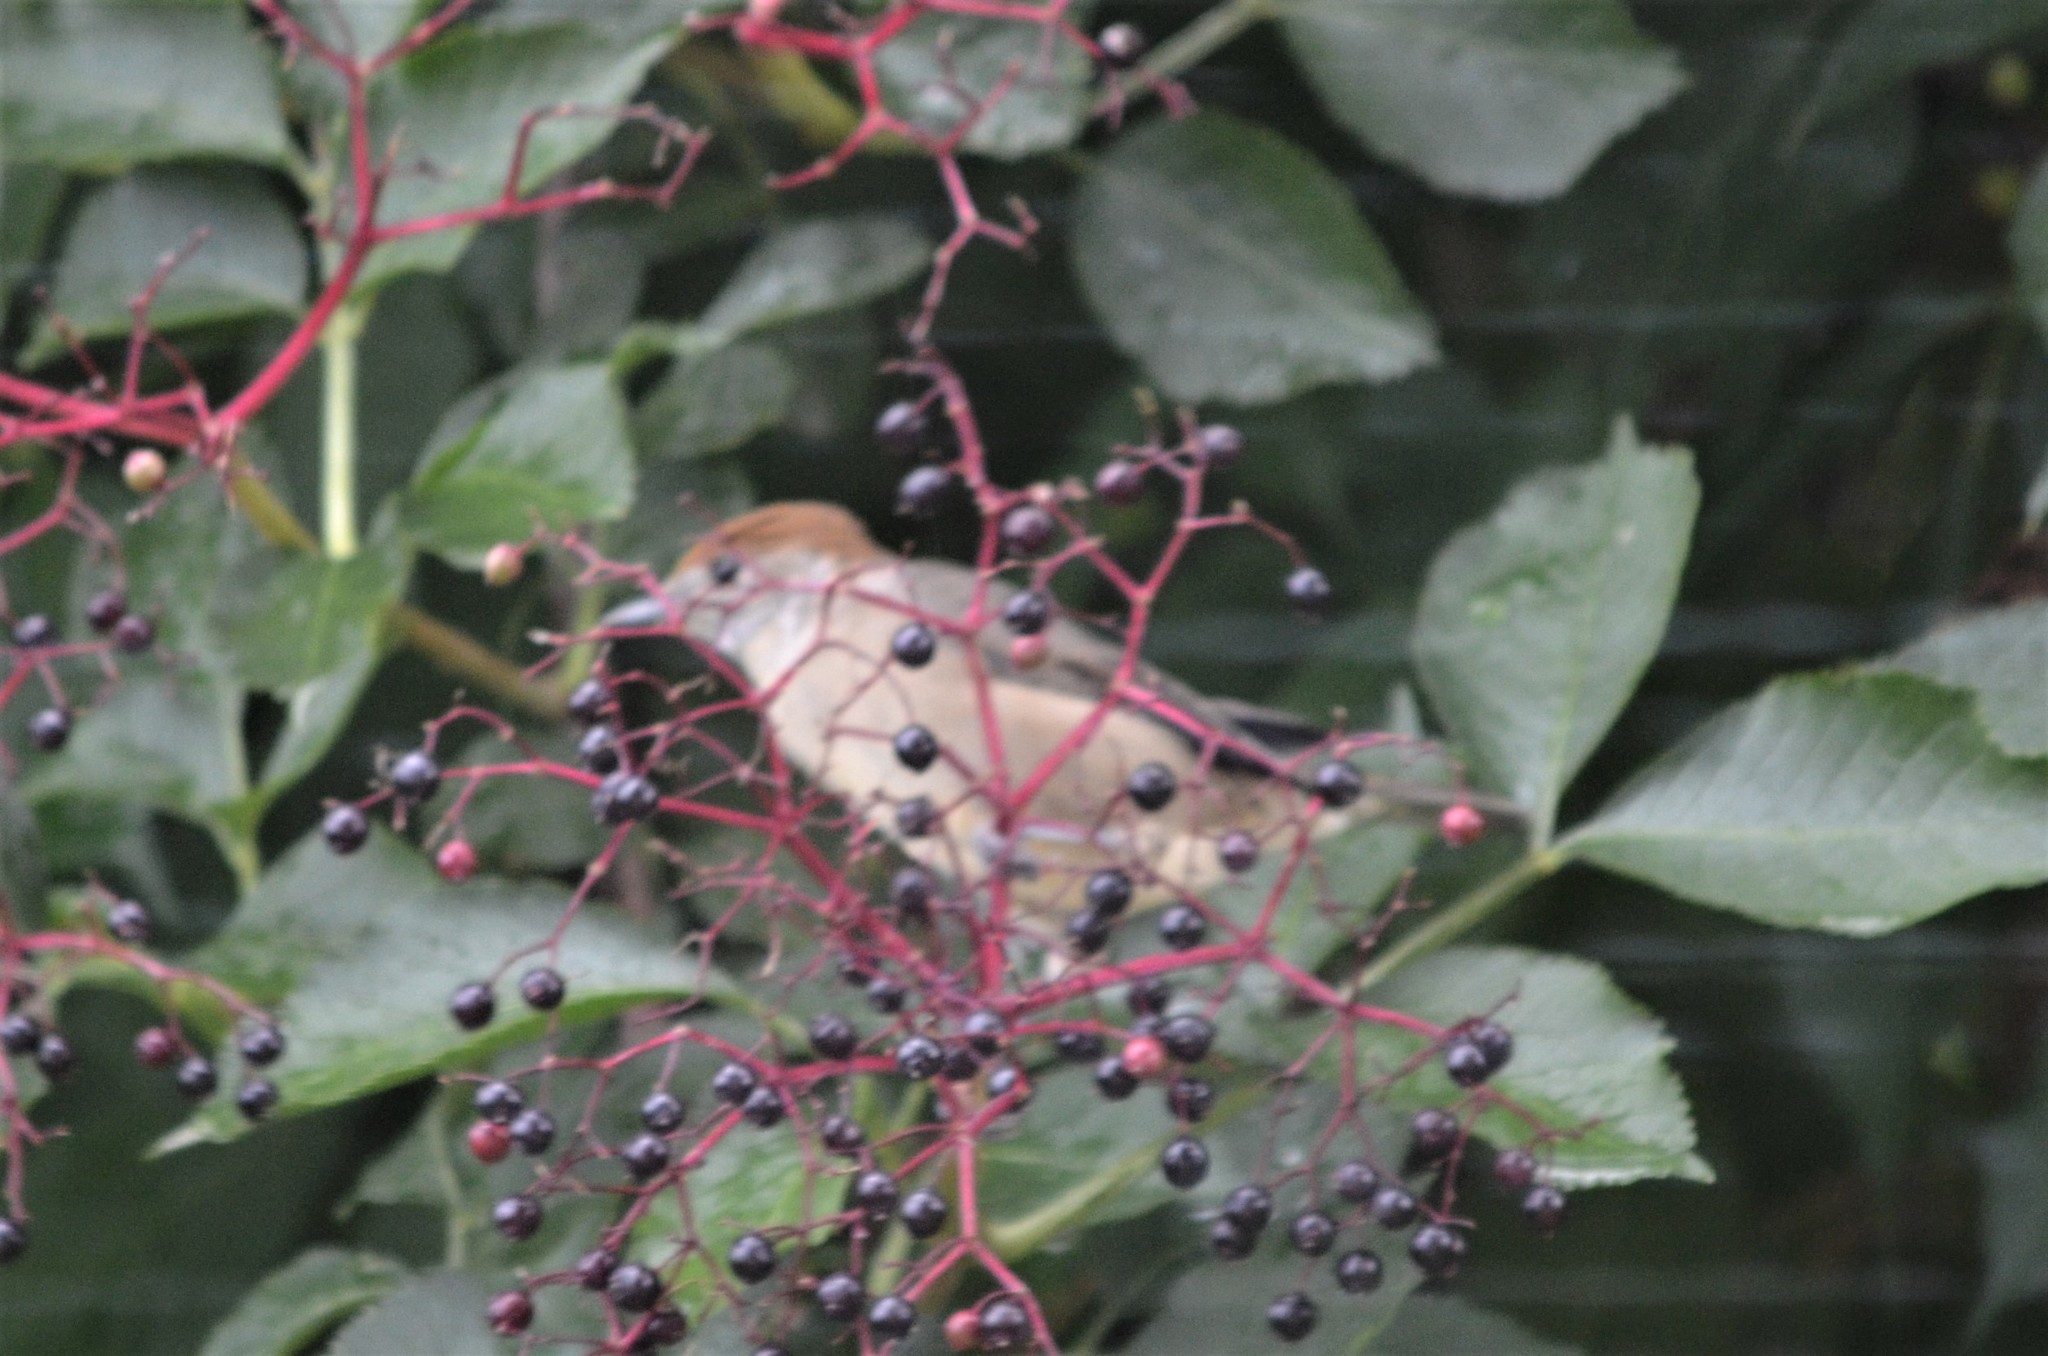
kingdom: Animalia
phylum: Chordata
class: Aves
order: Passeriformes
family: Sylviidae
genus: Sylvia
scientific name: Sylvia atricapilla
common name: Eurasian blackcap
